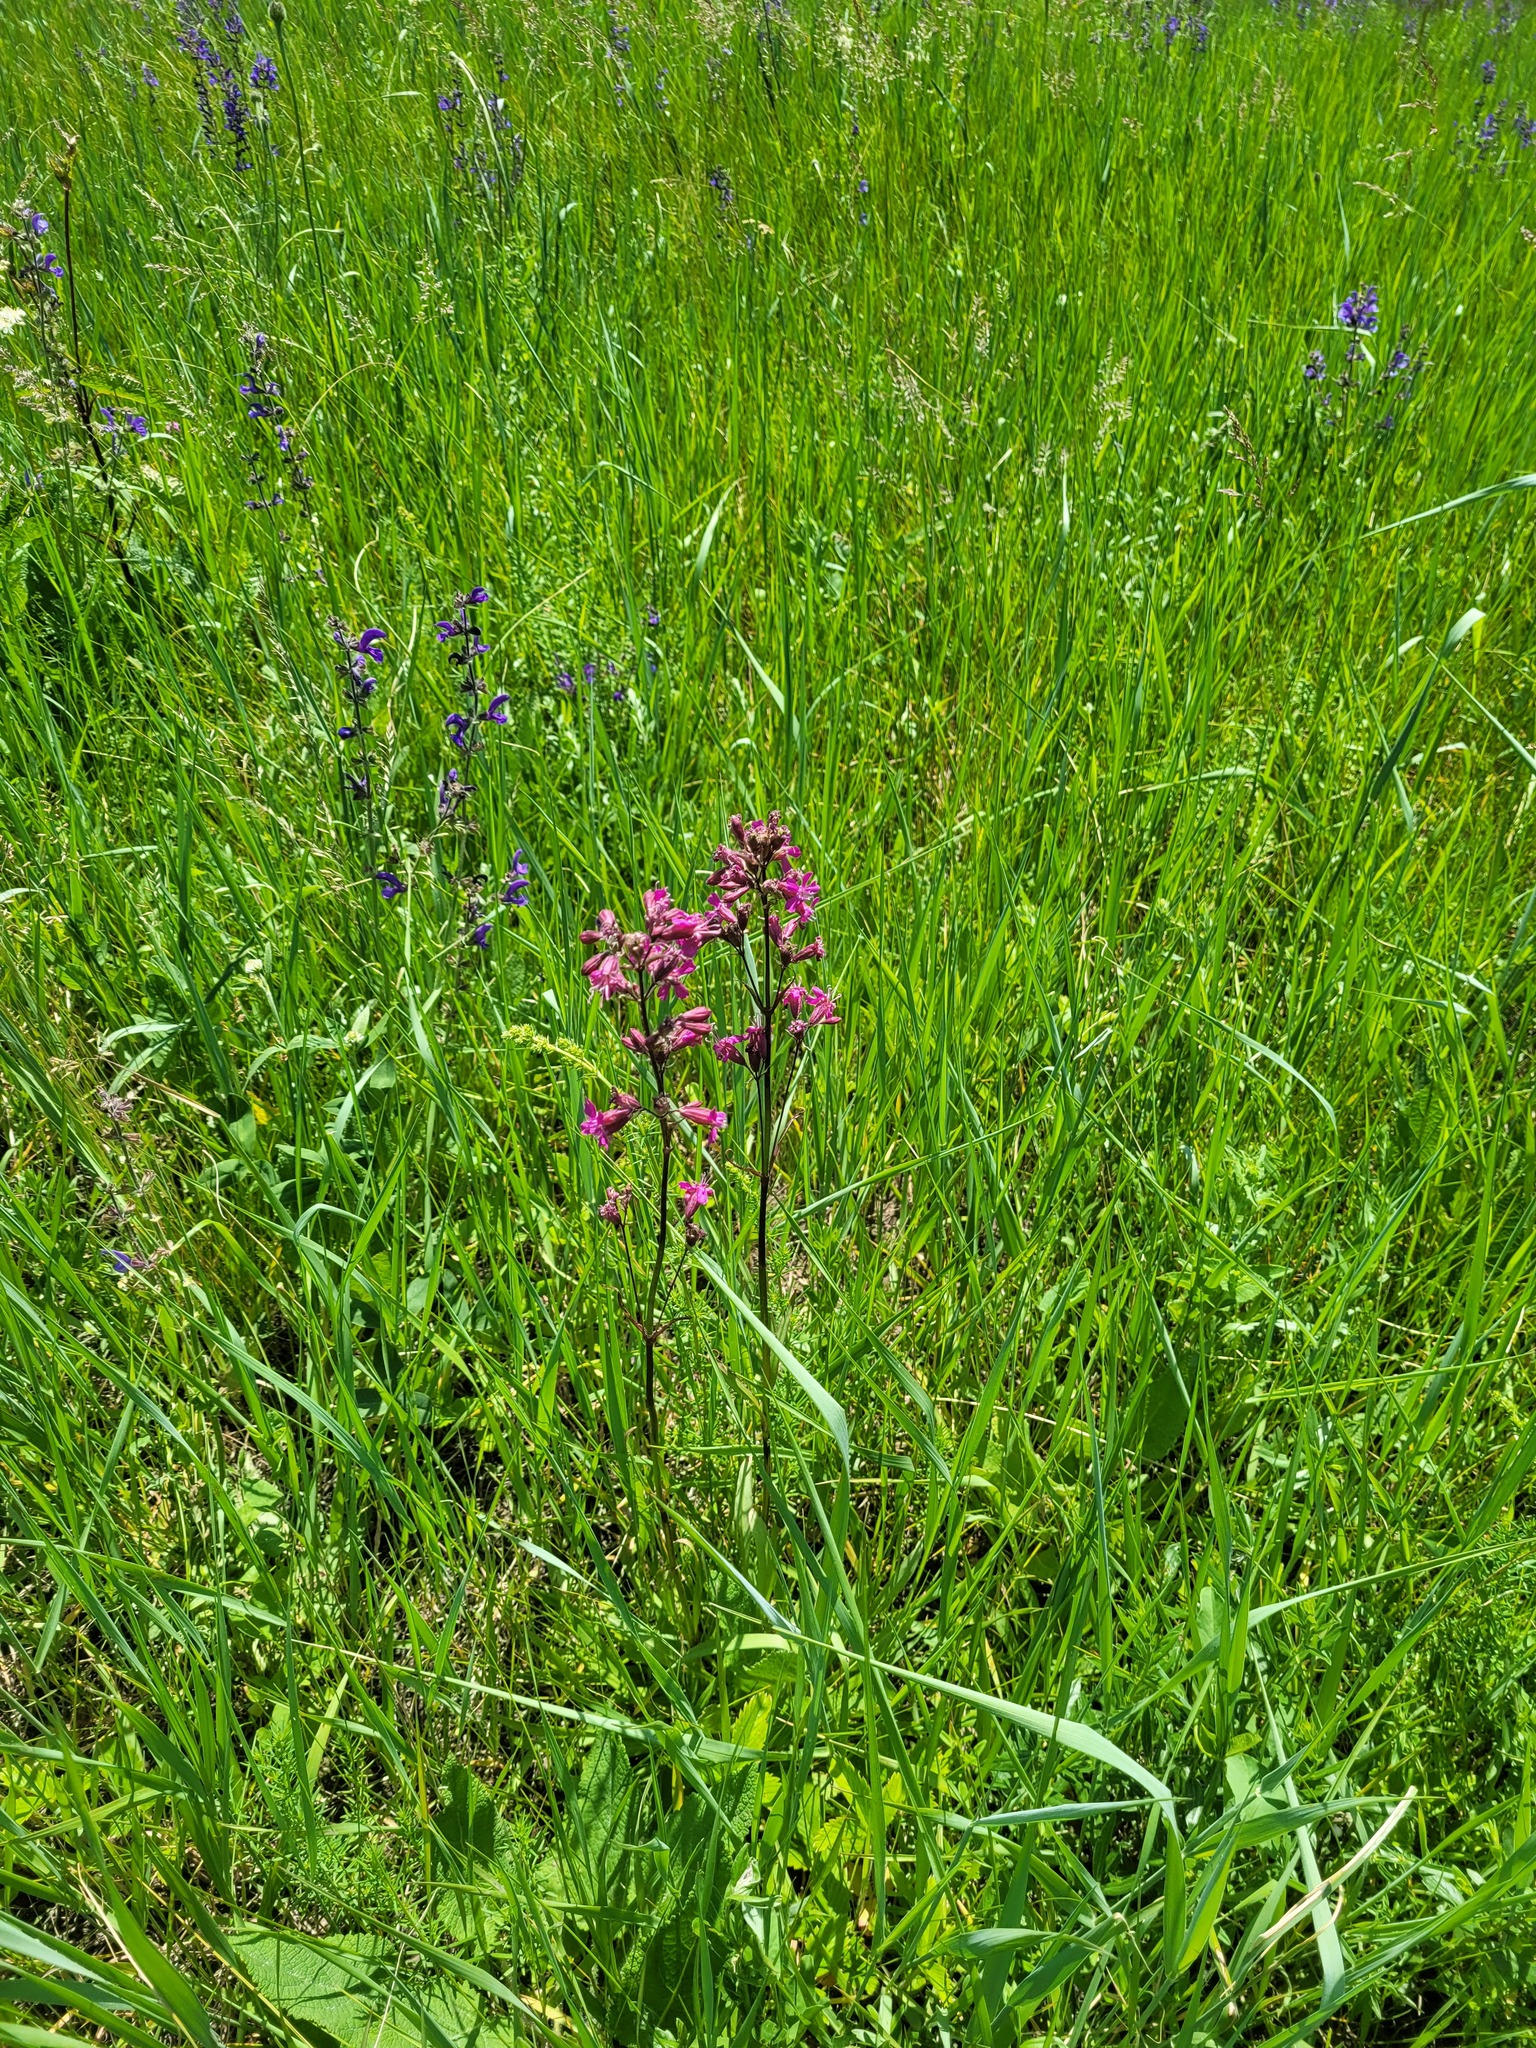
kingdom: Plantae
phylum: Tracheophyta
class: Magnoliopsida
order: Caryophyllales
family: Caryophyllaceae
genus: Viscaria
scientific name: Viscaria vulgaris
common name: Clammy campion
